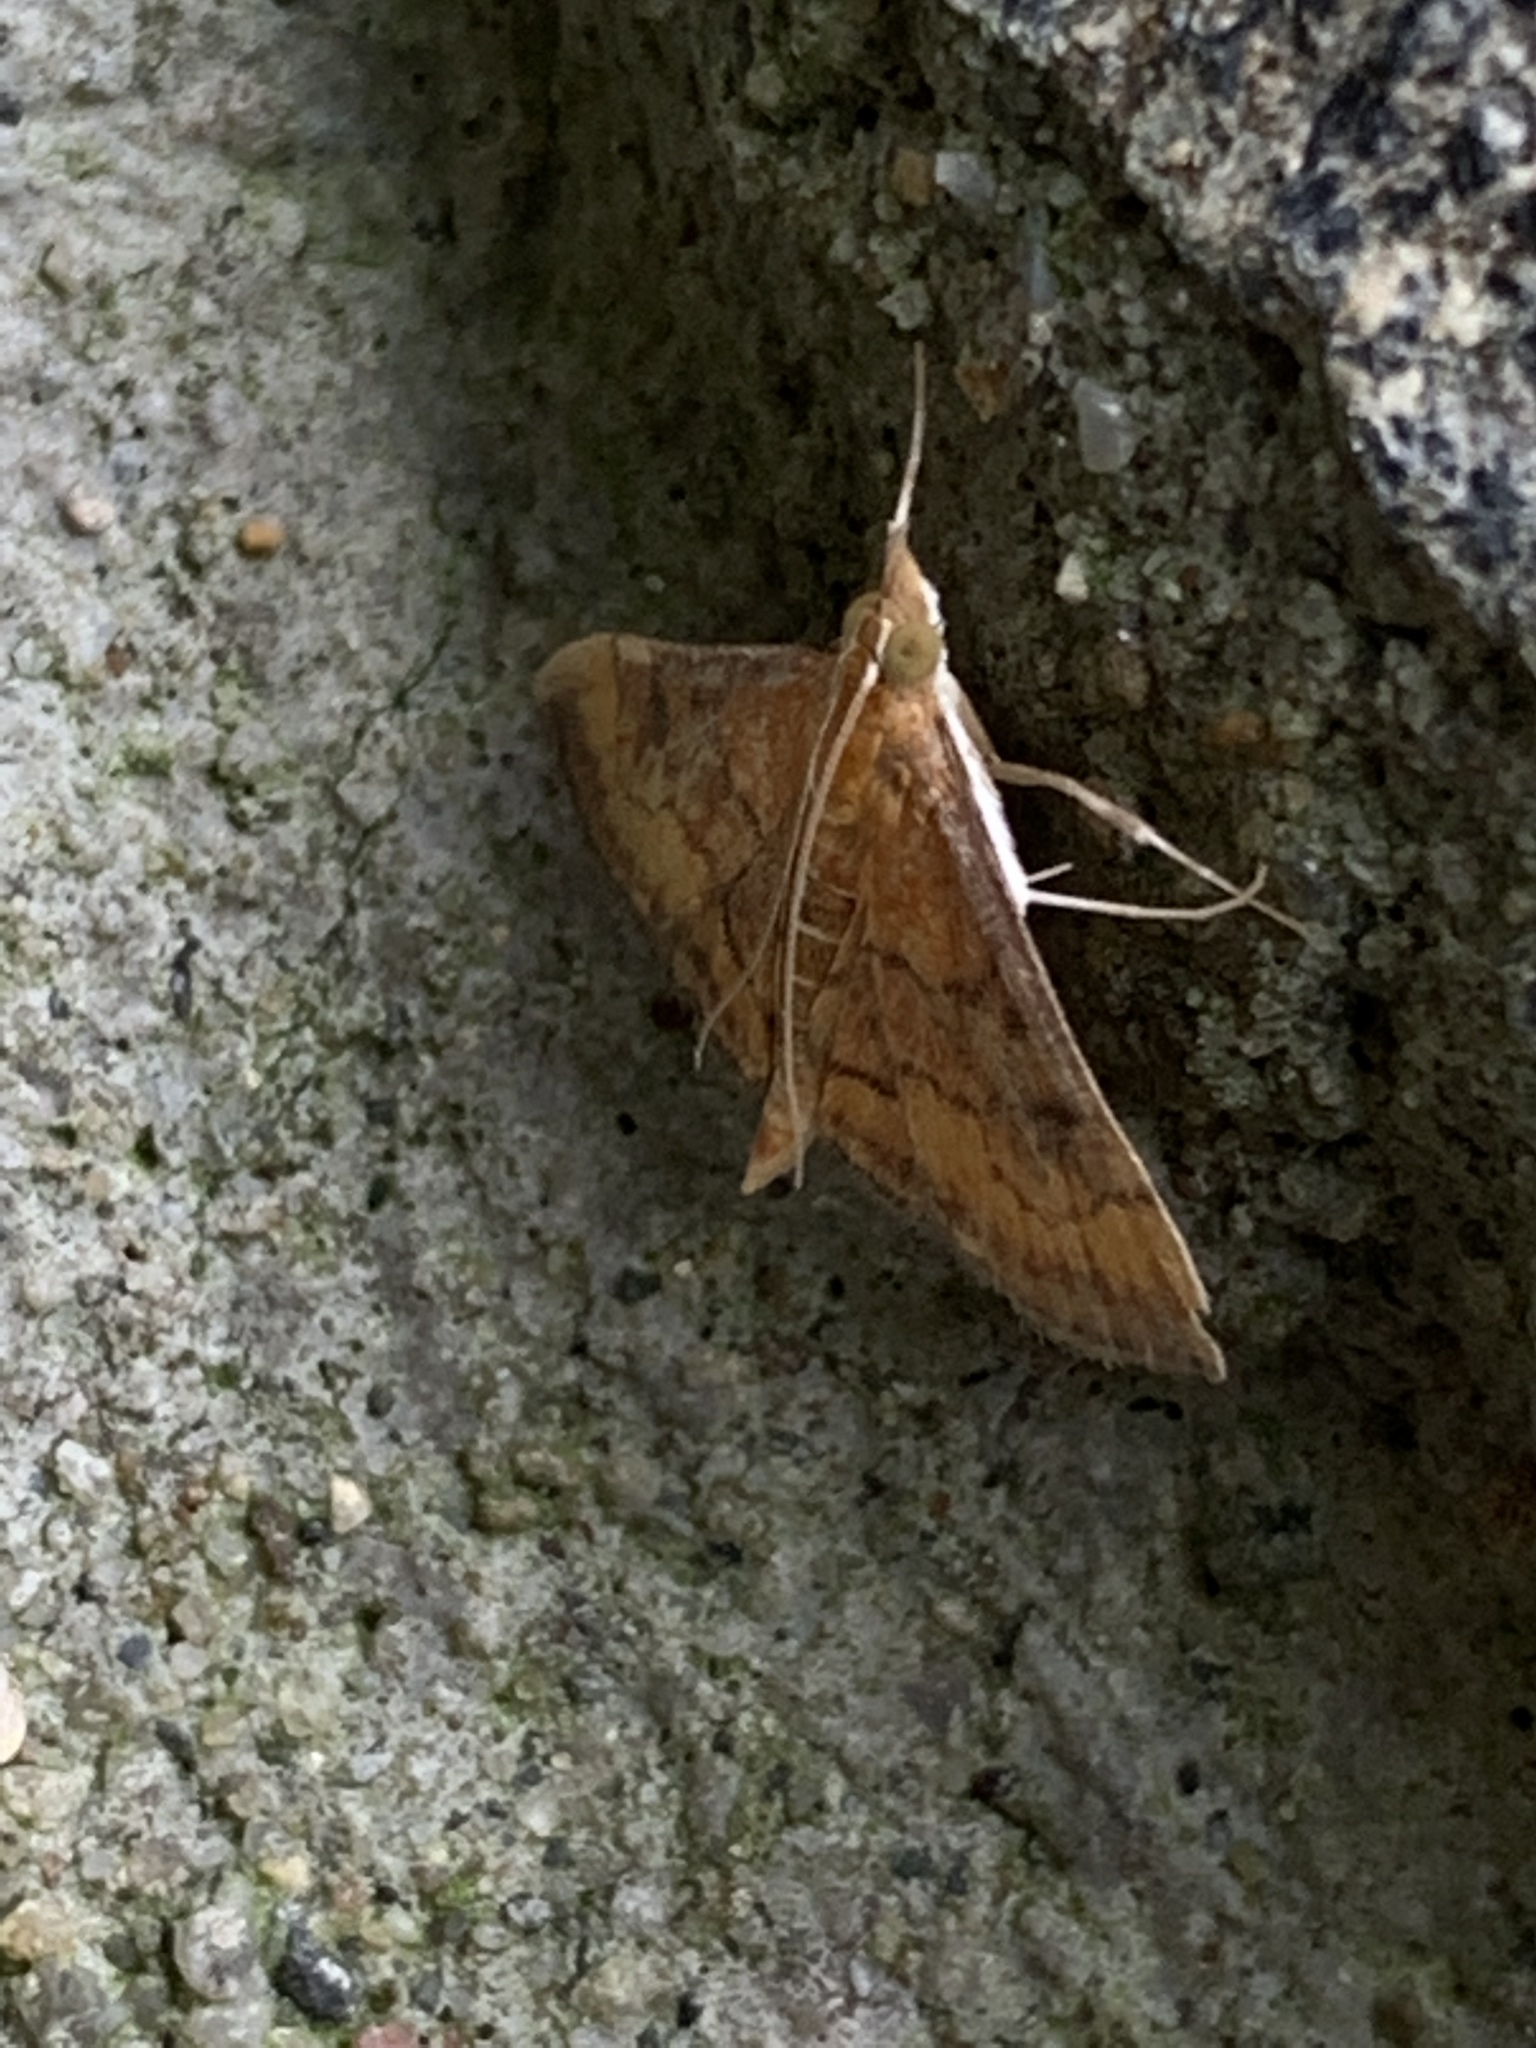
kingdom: Animalia
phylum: Arthropoda
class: Insecta
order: Lepidoptera
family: Crambidae
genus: Pyrausta
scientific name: Pyrausta rubricalis
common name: Variable reddish pyrausta
